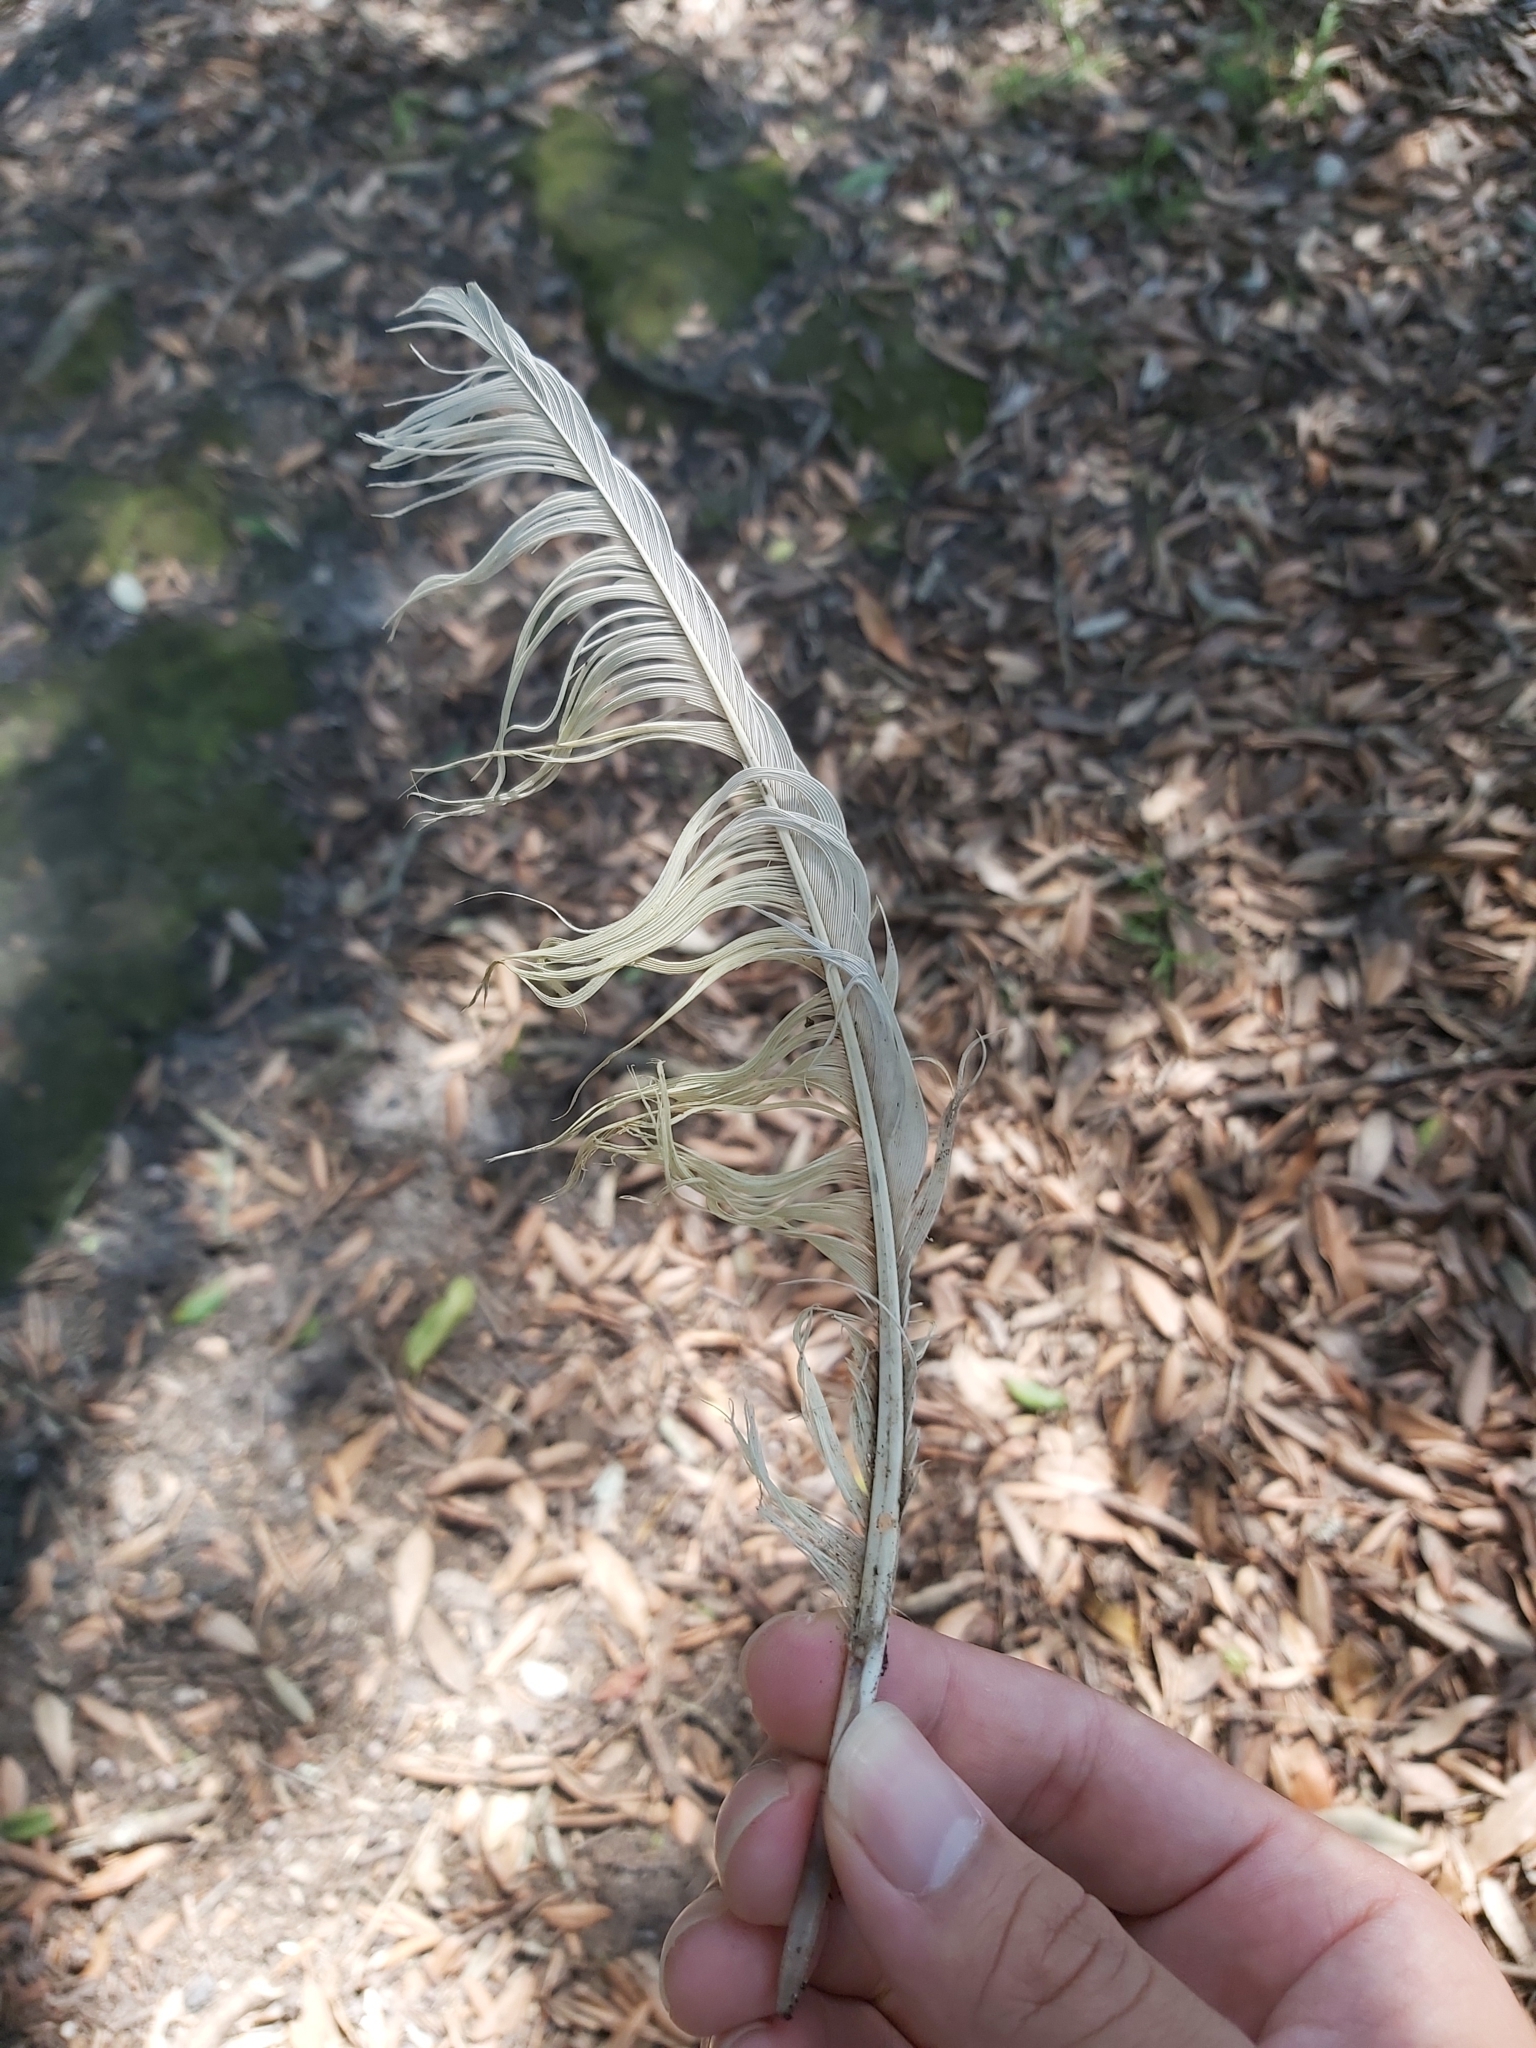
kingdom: Animalia
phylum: Chordata
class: Aves
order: Psittaciformes
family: Psittacidae
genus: Cacatua
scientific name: Cacatua galerita
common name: Sulphur-crested cockatoo
